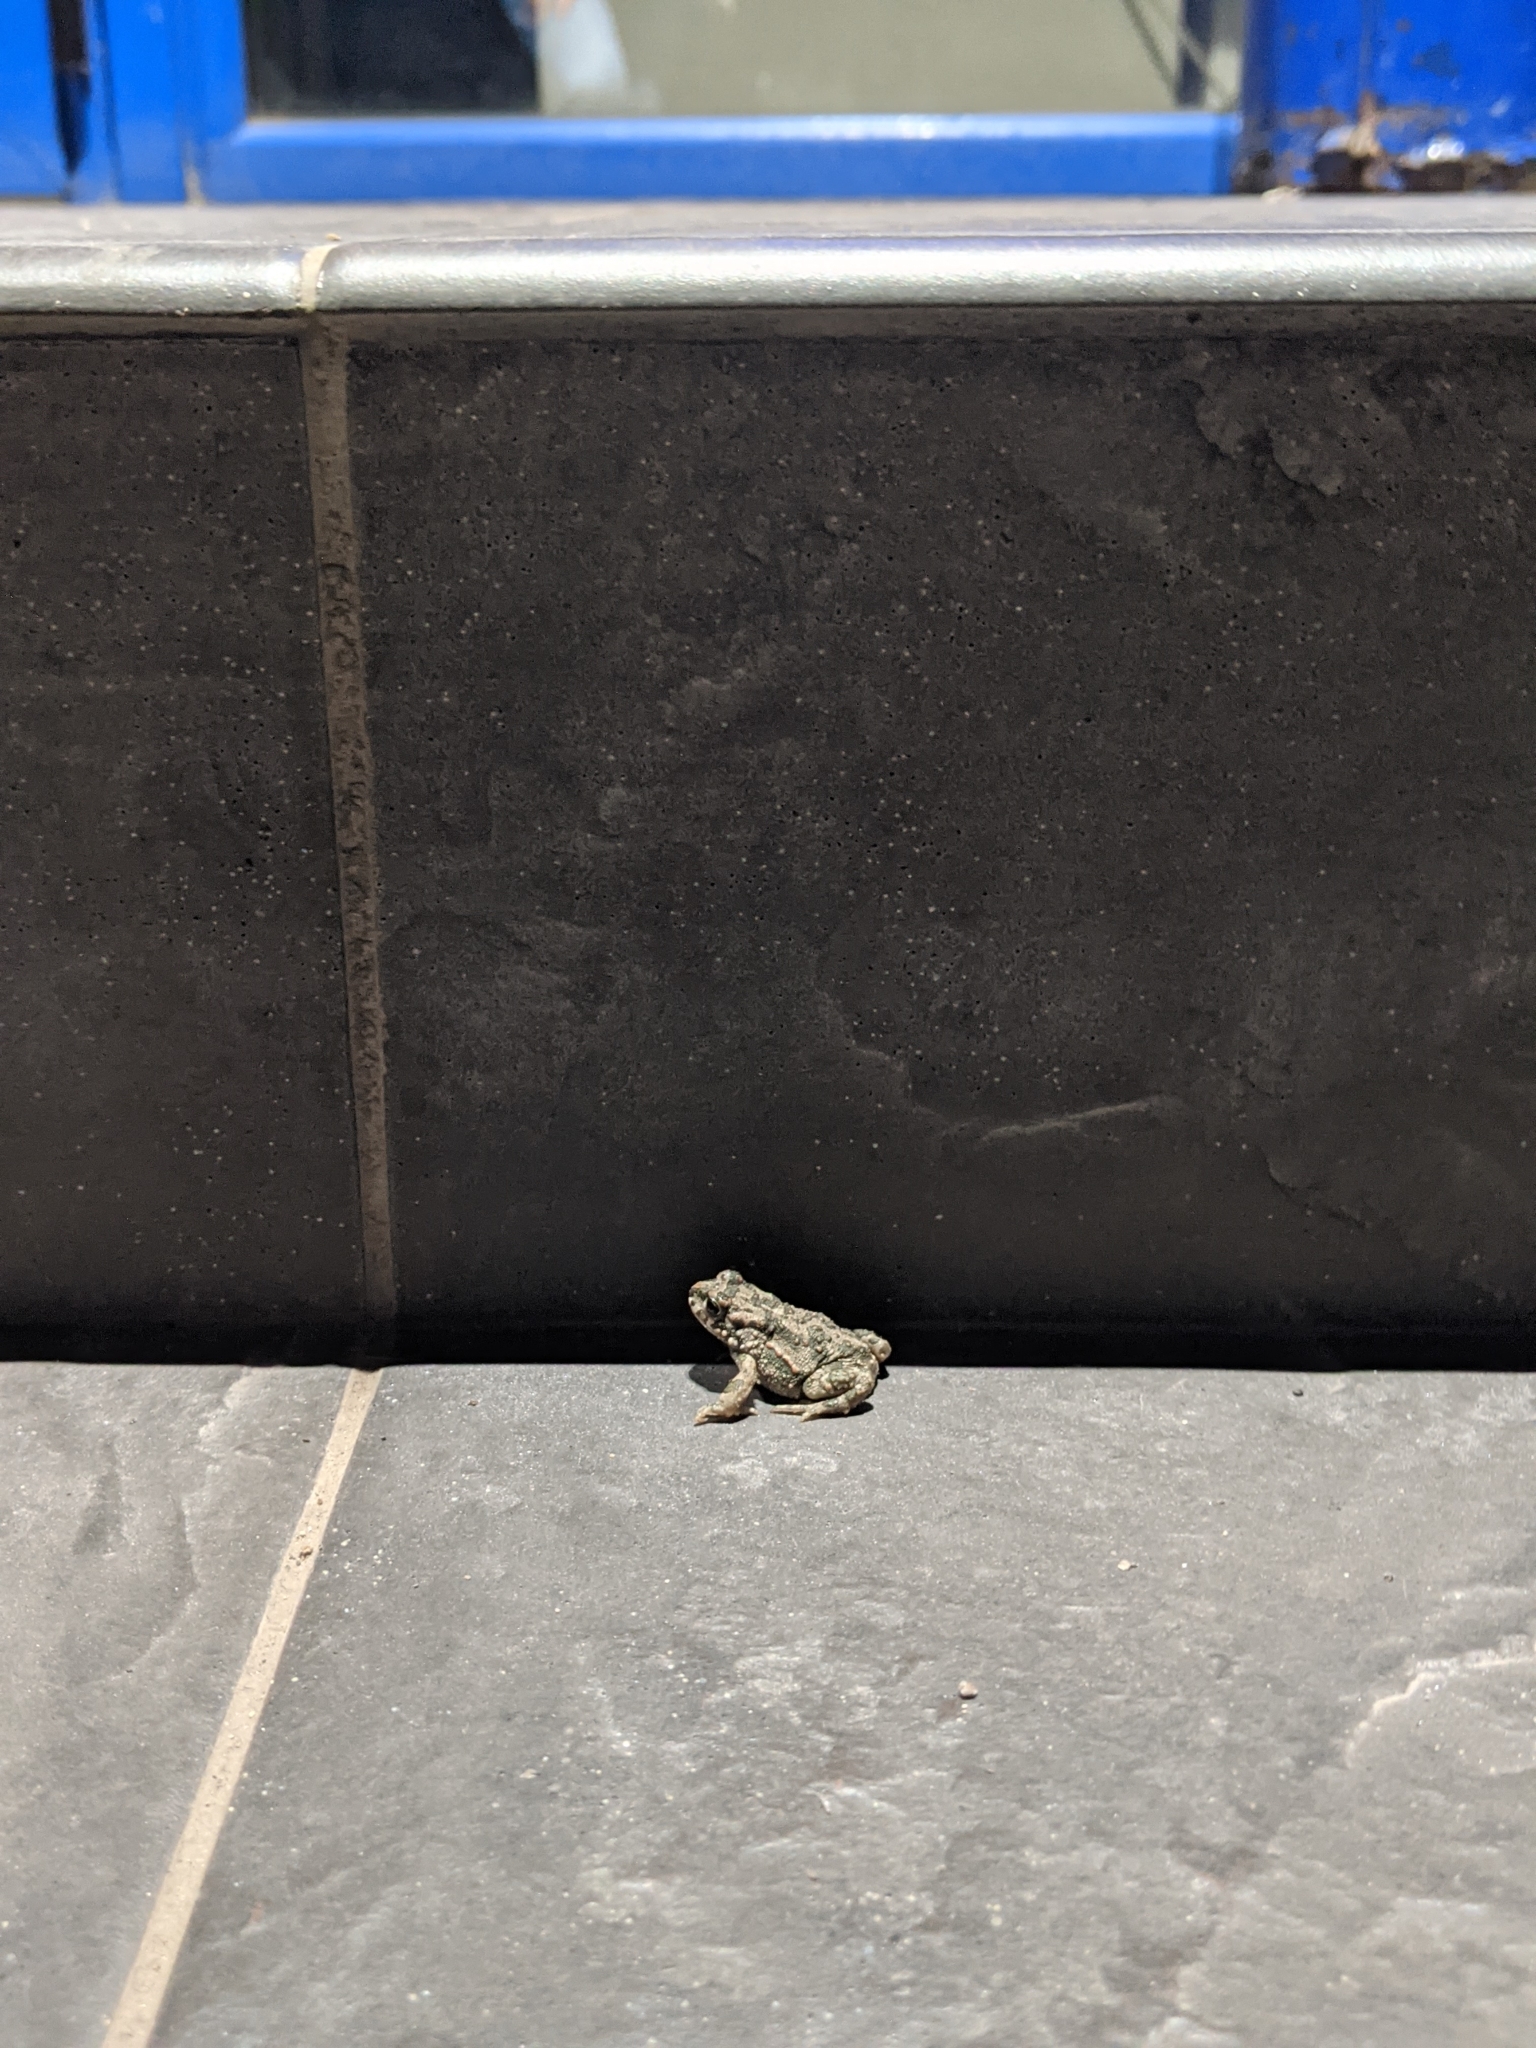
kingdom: Animalia
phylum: Chordata
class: Amphibia
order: Anura
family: Bufonidae
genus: Bufotes
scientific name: Bufotes viridis
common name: European green toad
